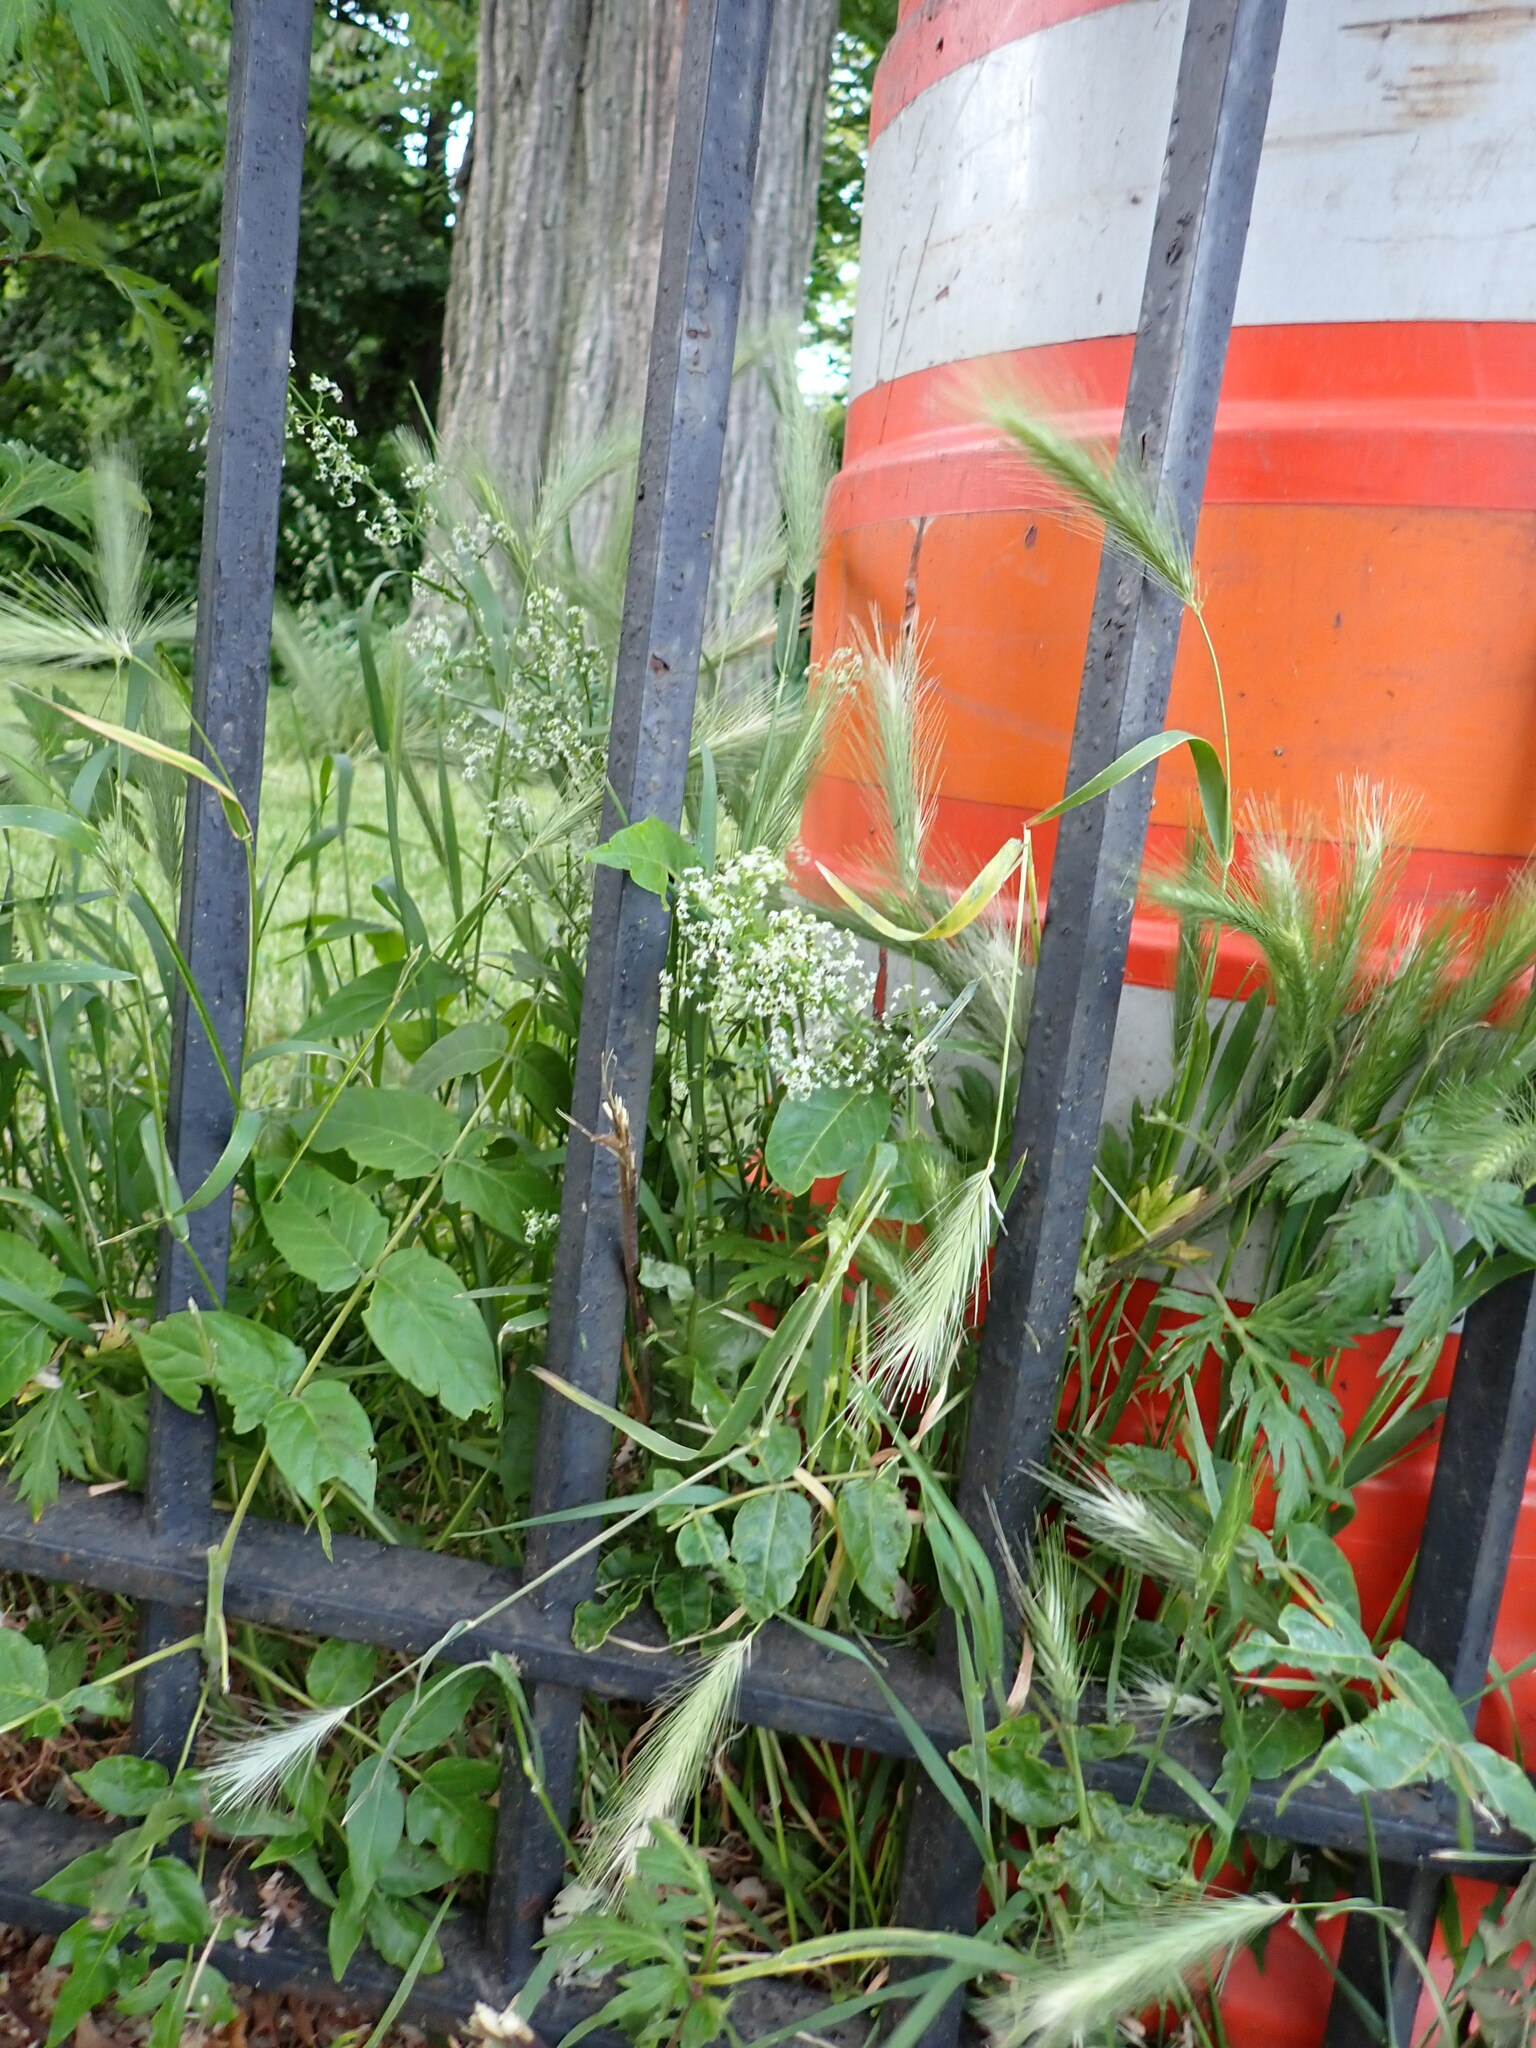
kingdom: Plantae
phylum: Tracheophyta
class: Liliopsida
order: Poales
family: Poaceae
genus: Hordeum
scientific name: Hordeum murinum
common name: Wall barley
